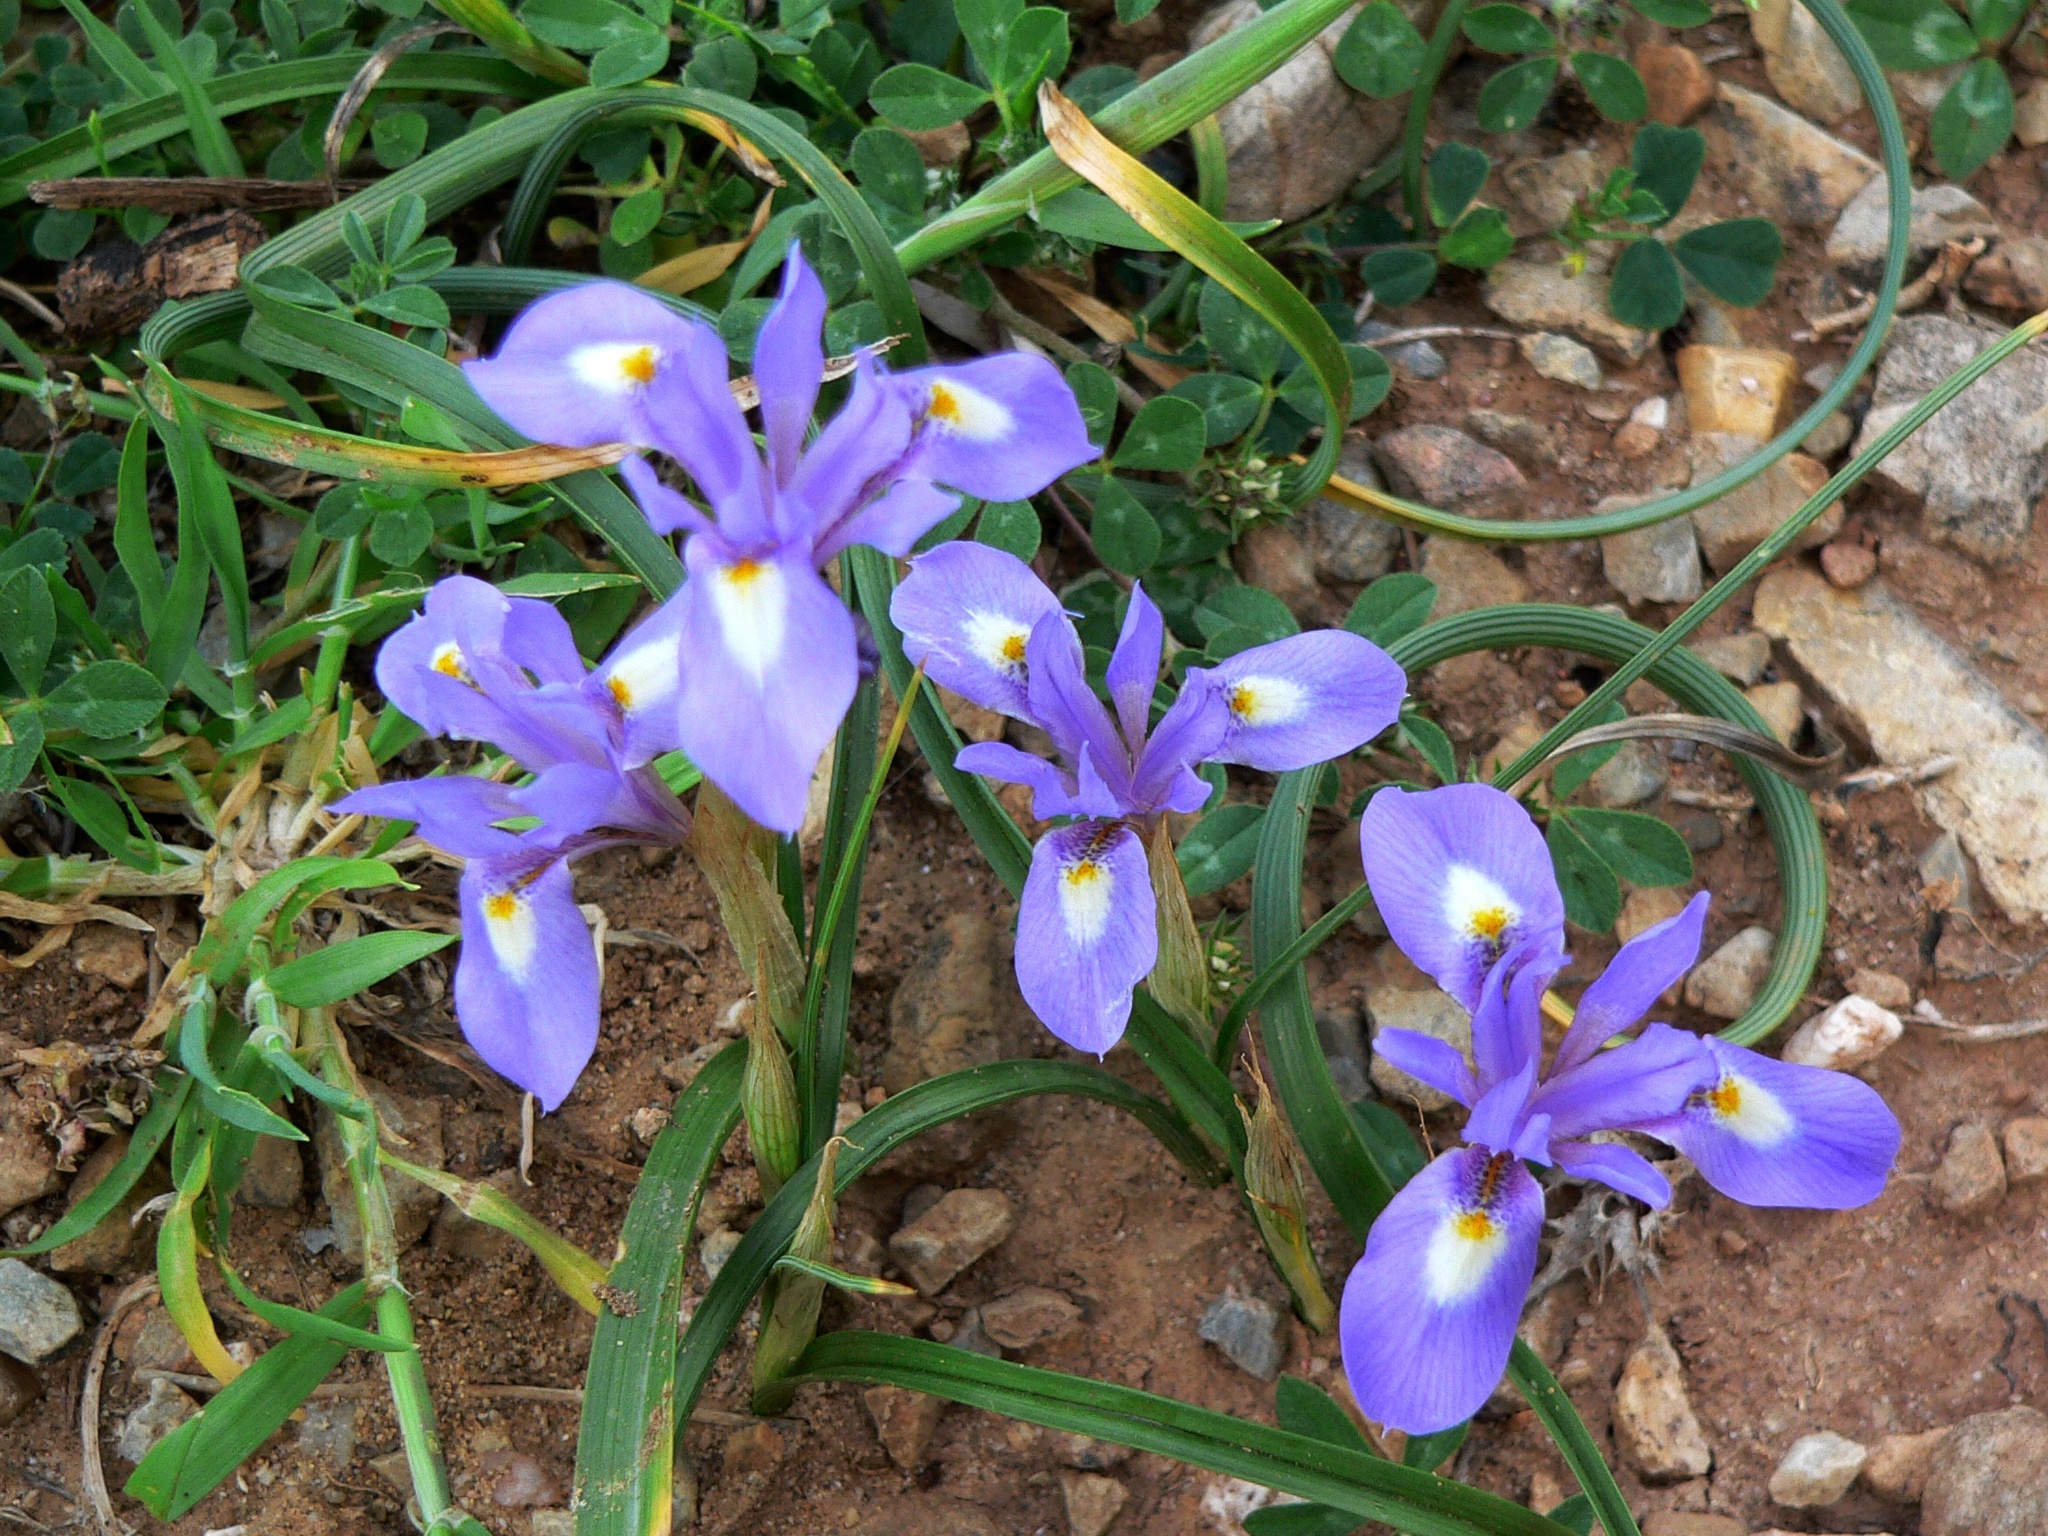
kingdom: Plantae
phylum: Tracheophyta
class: Liliopsida
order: Asparagales
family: Iridaceae
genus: Moraea
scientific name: Moraea sisyrinchium
